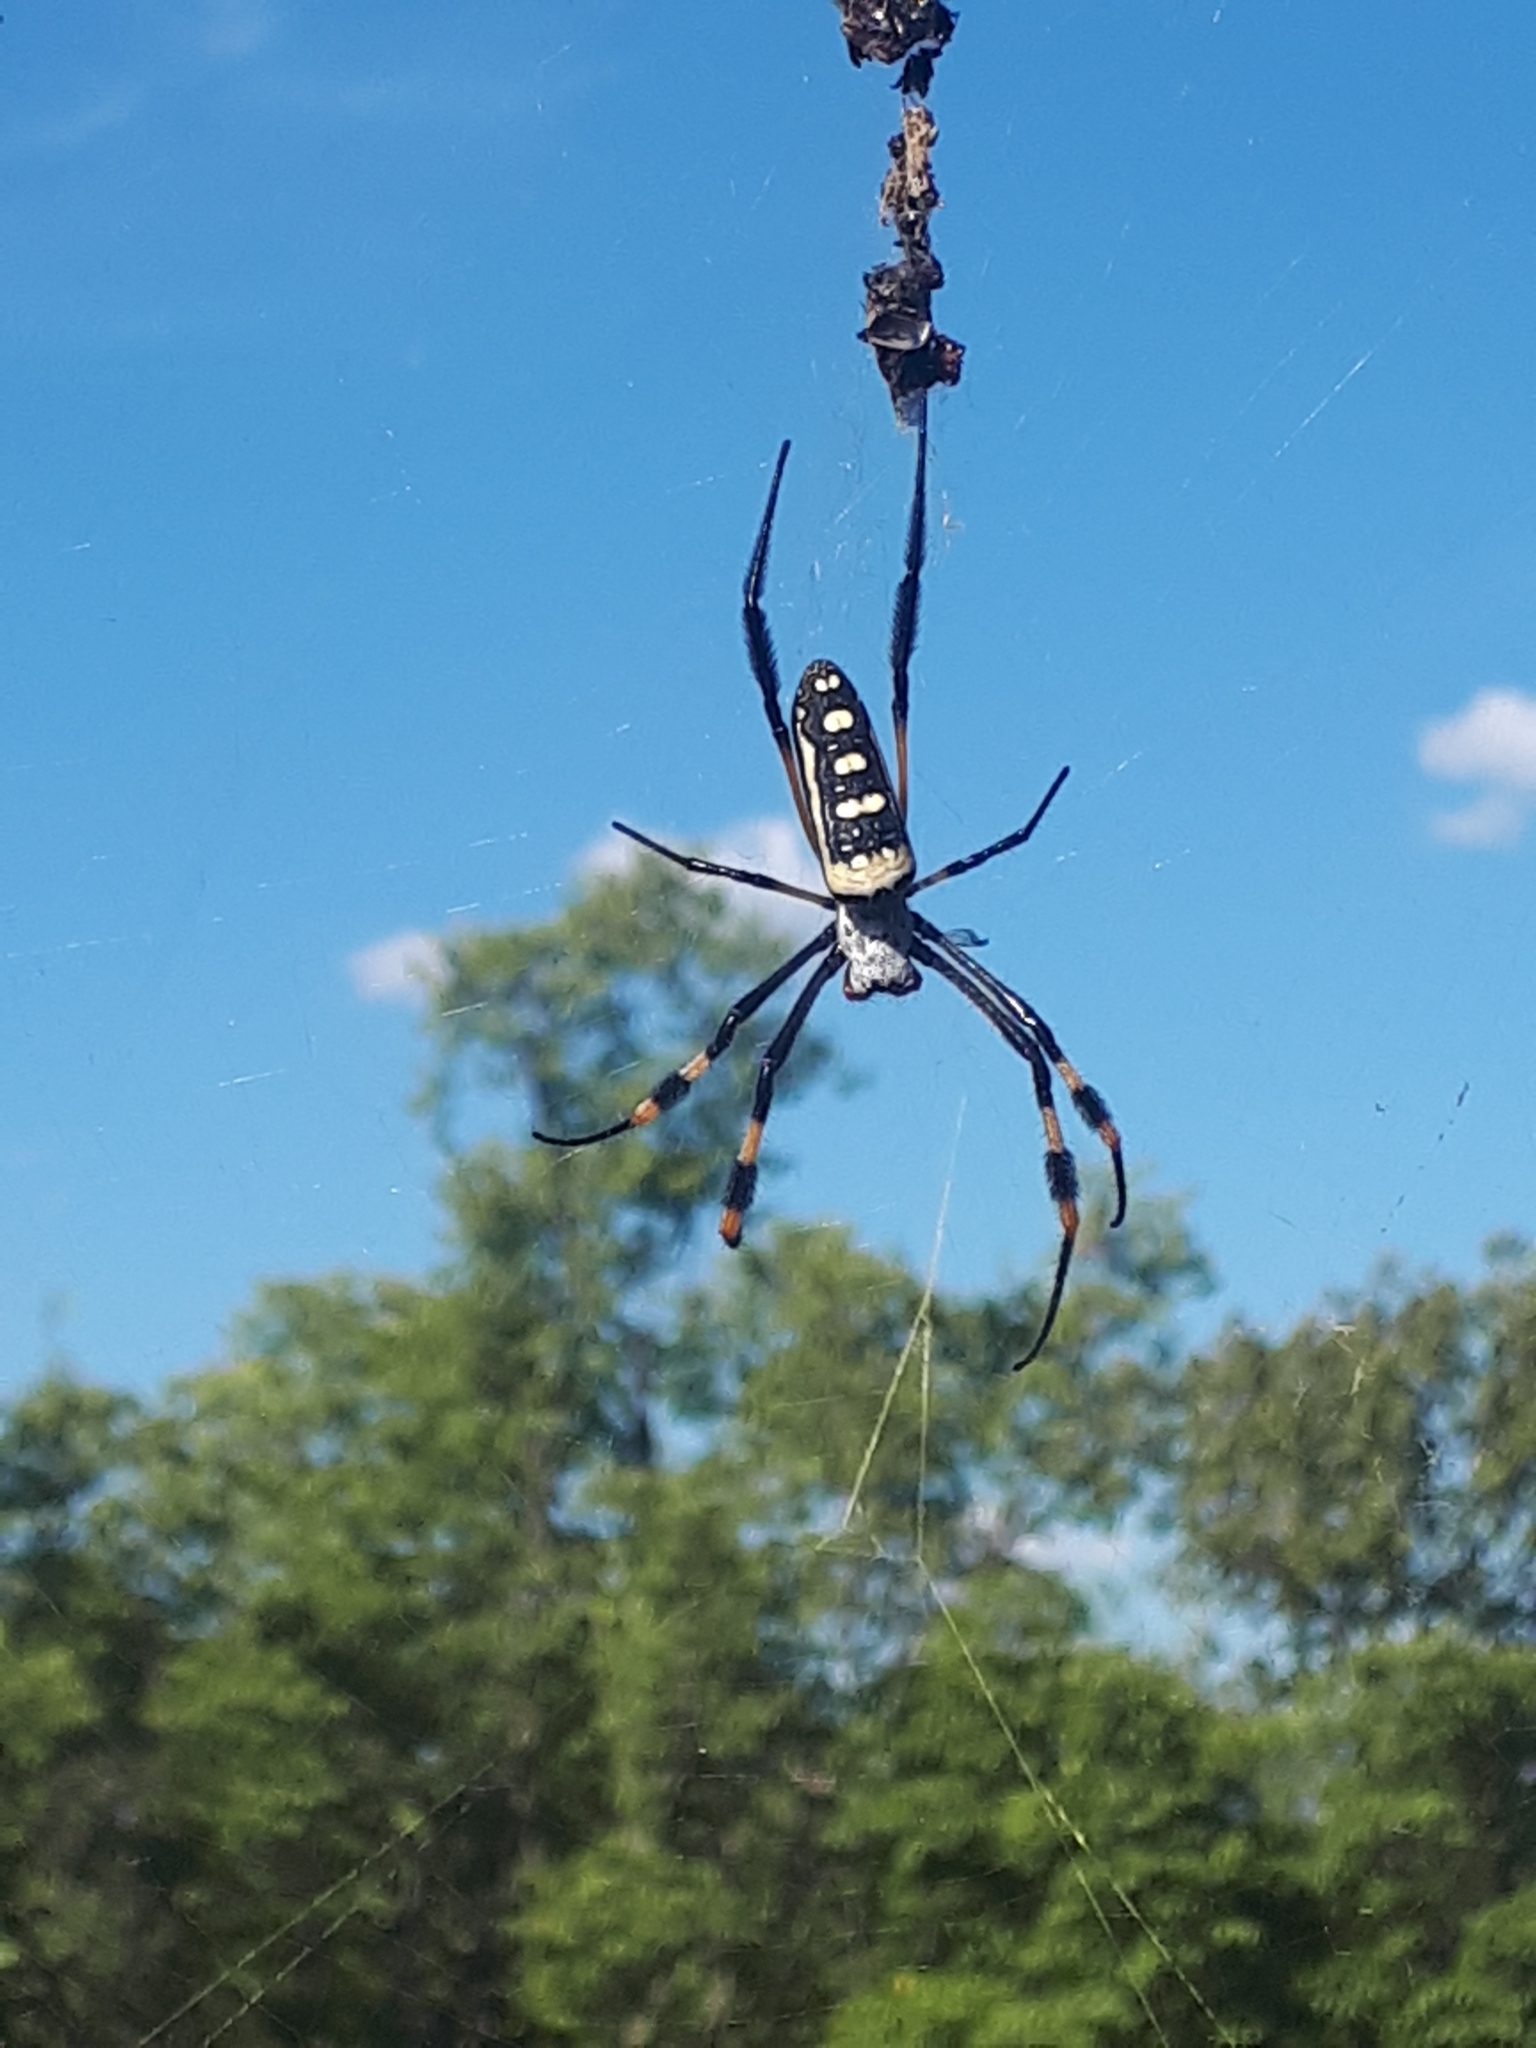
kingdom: Animalia
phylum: Arthropoda
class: Arachnida
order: Araneae
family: Araneidae
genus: Trichonephila
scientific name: Trichonephila senegalensis
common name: Banded golden orb weaver
